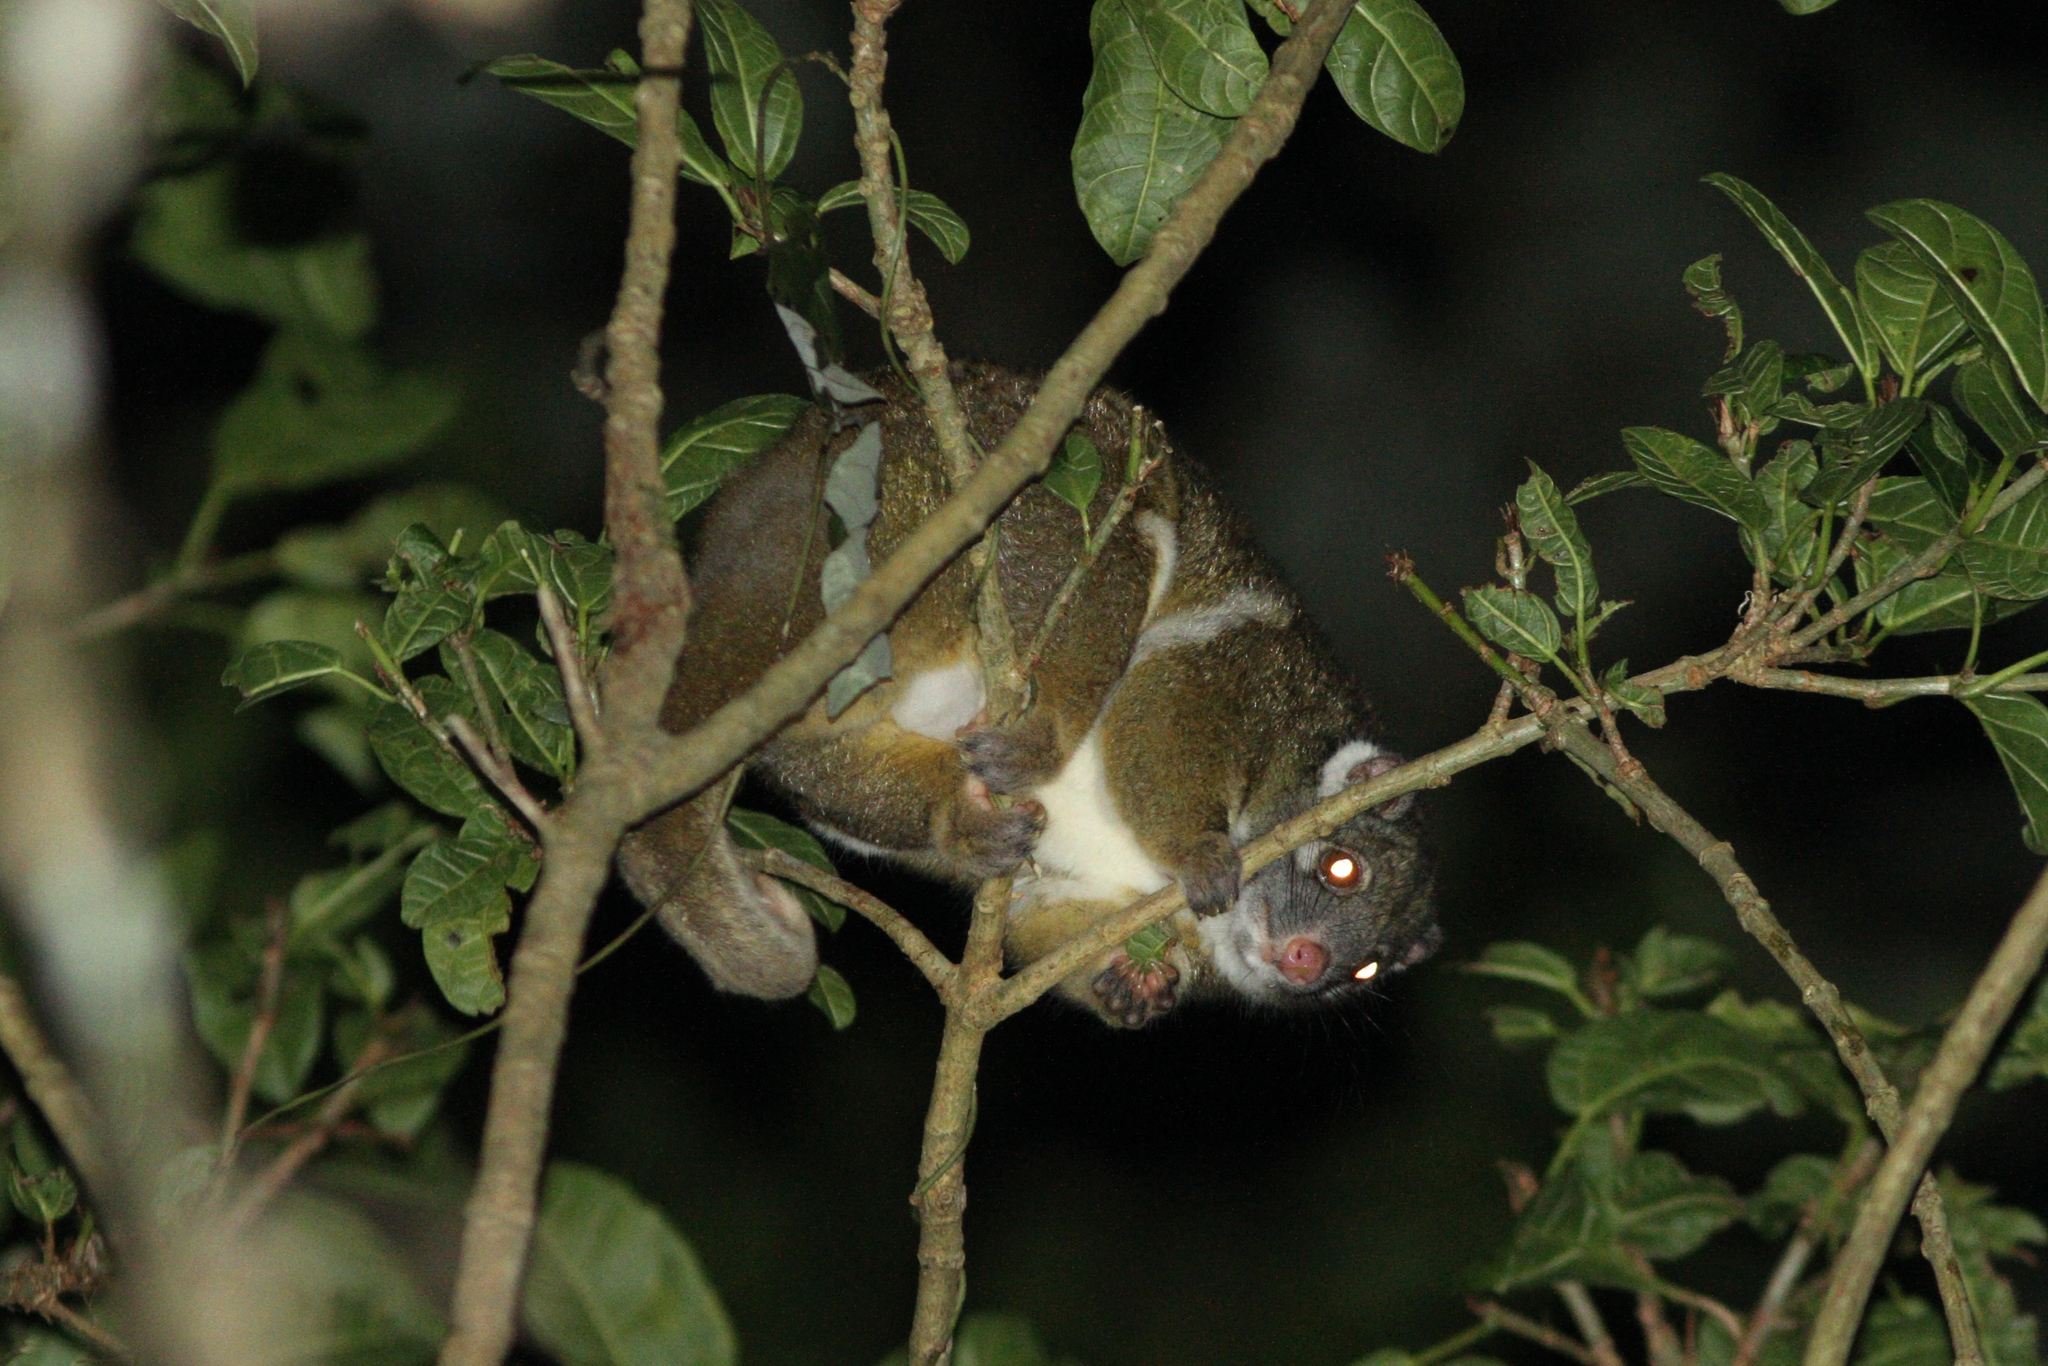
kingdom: Animalia
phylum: Chordata
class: Mammalia
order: Diprotodontia
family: Pseudocheiridae
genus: Pseudochirops
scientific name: Pseudochirops archeri
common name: Green ringtail
